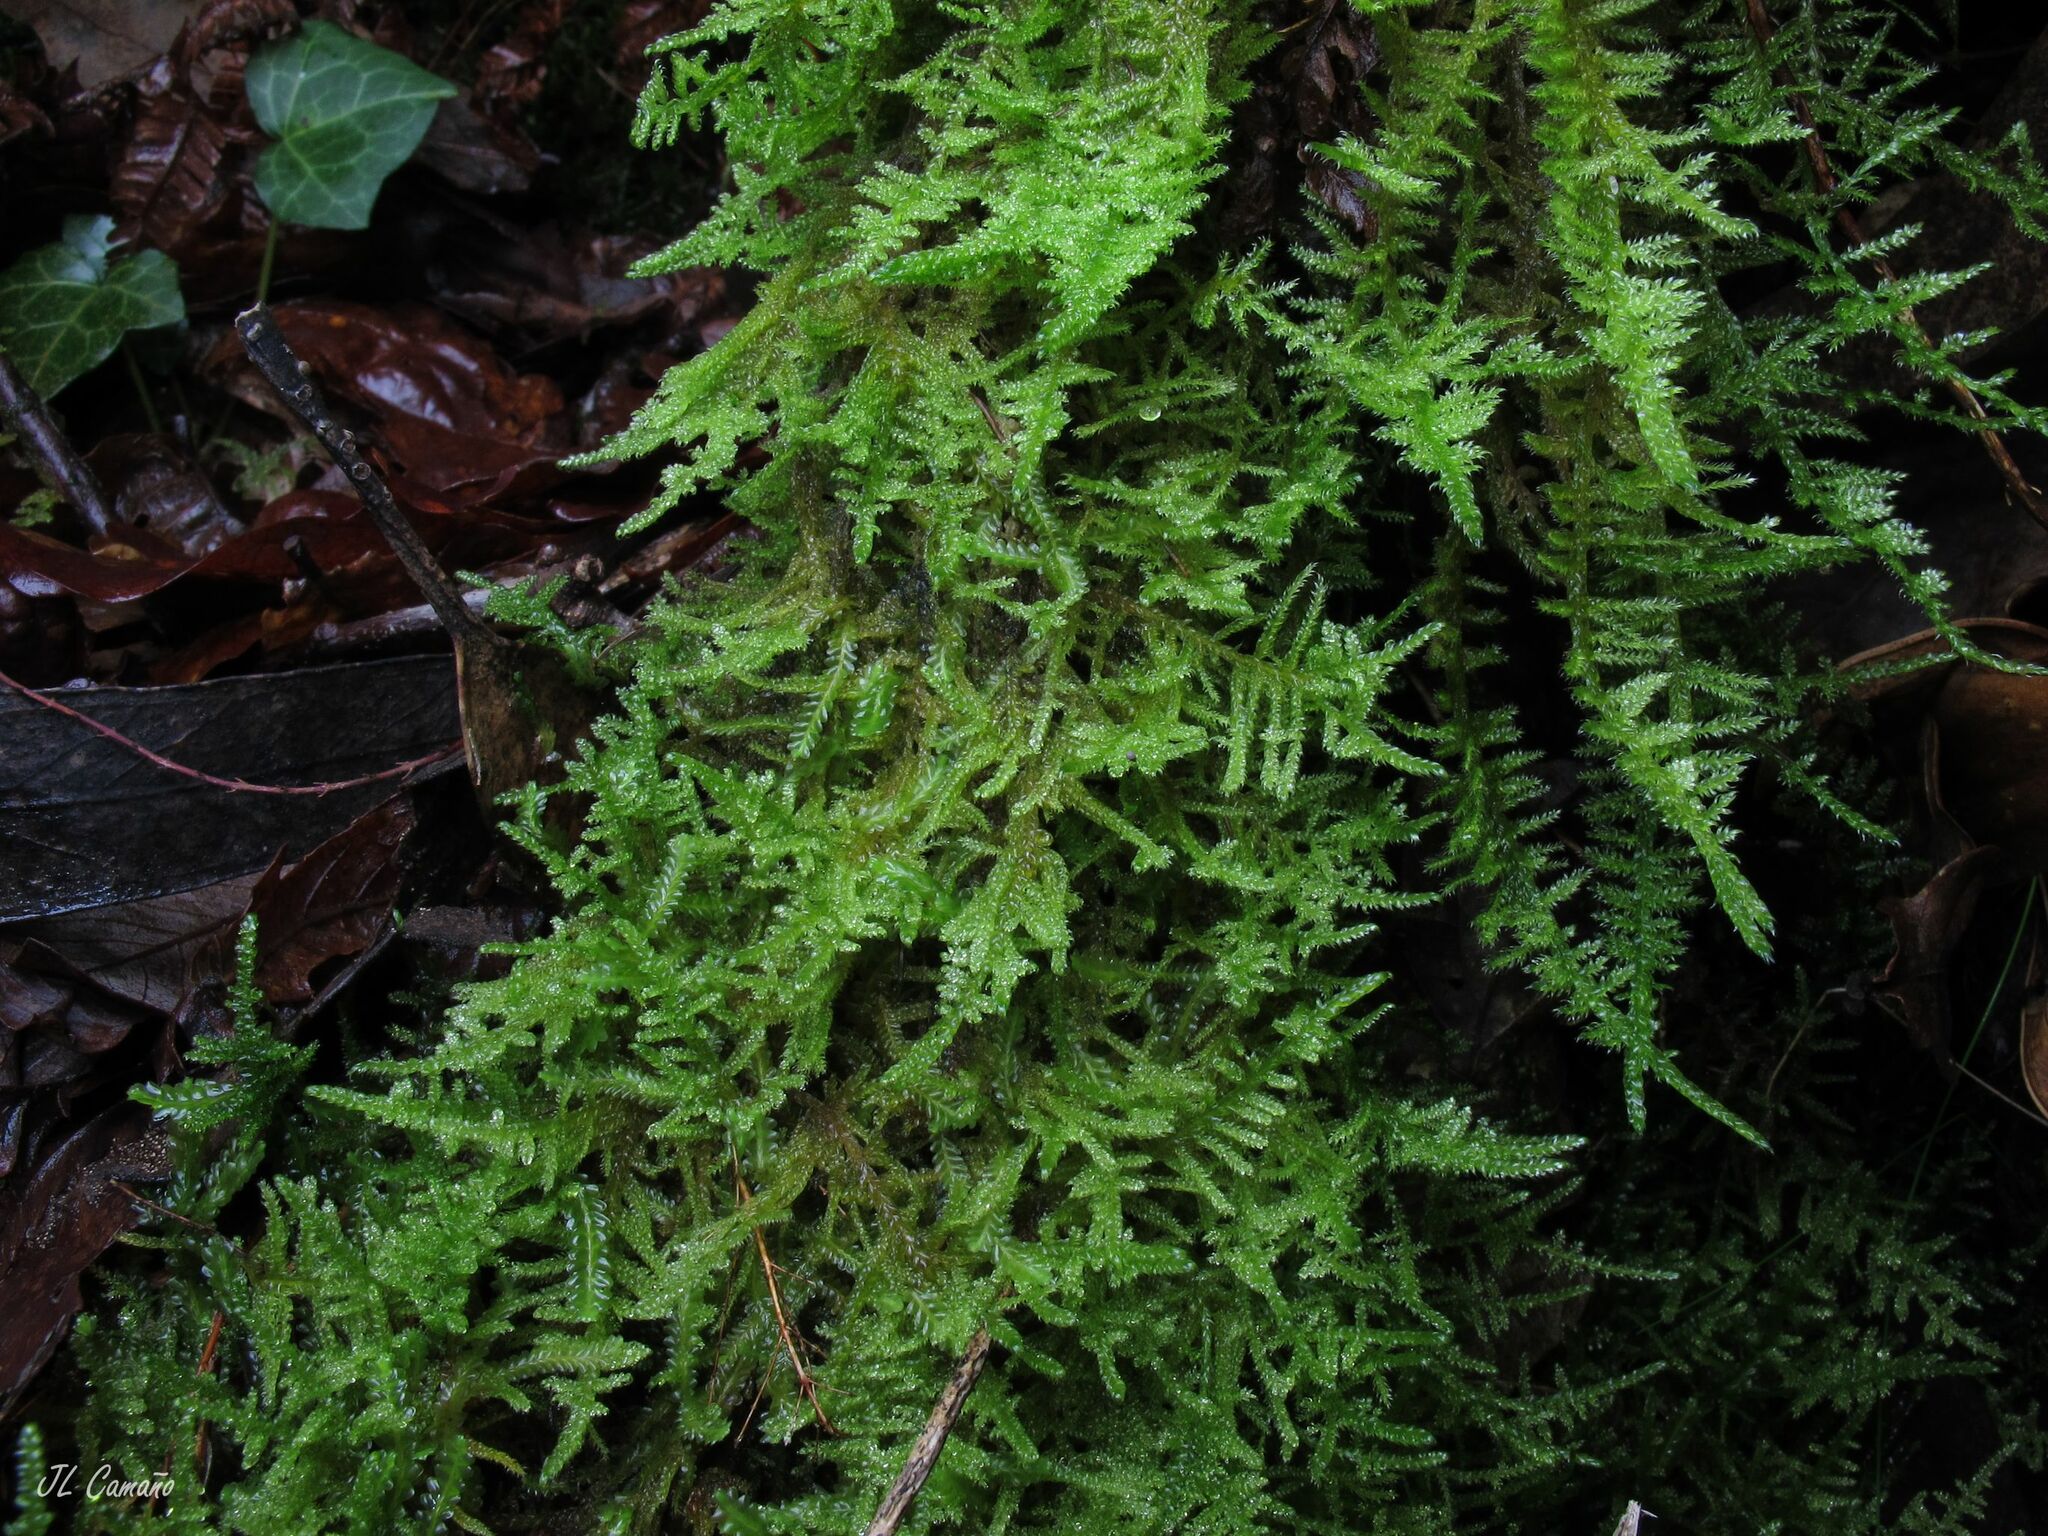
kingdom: Plantae
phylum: Bryophyta
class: Bryopsida
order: Hypnales
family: Hypnaceae
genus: Hypnum
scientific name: Hypnum jutlandicum
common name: Heath plait-moss
